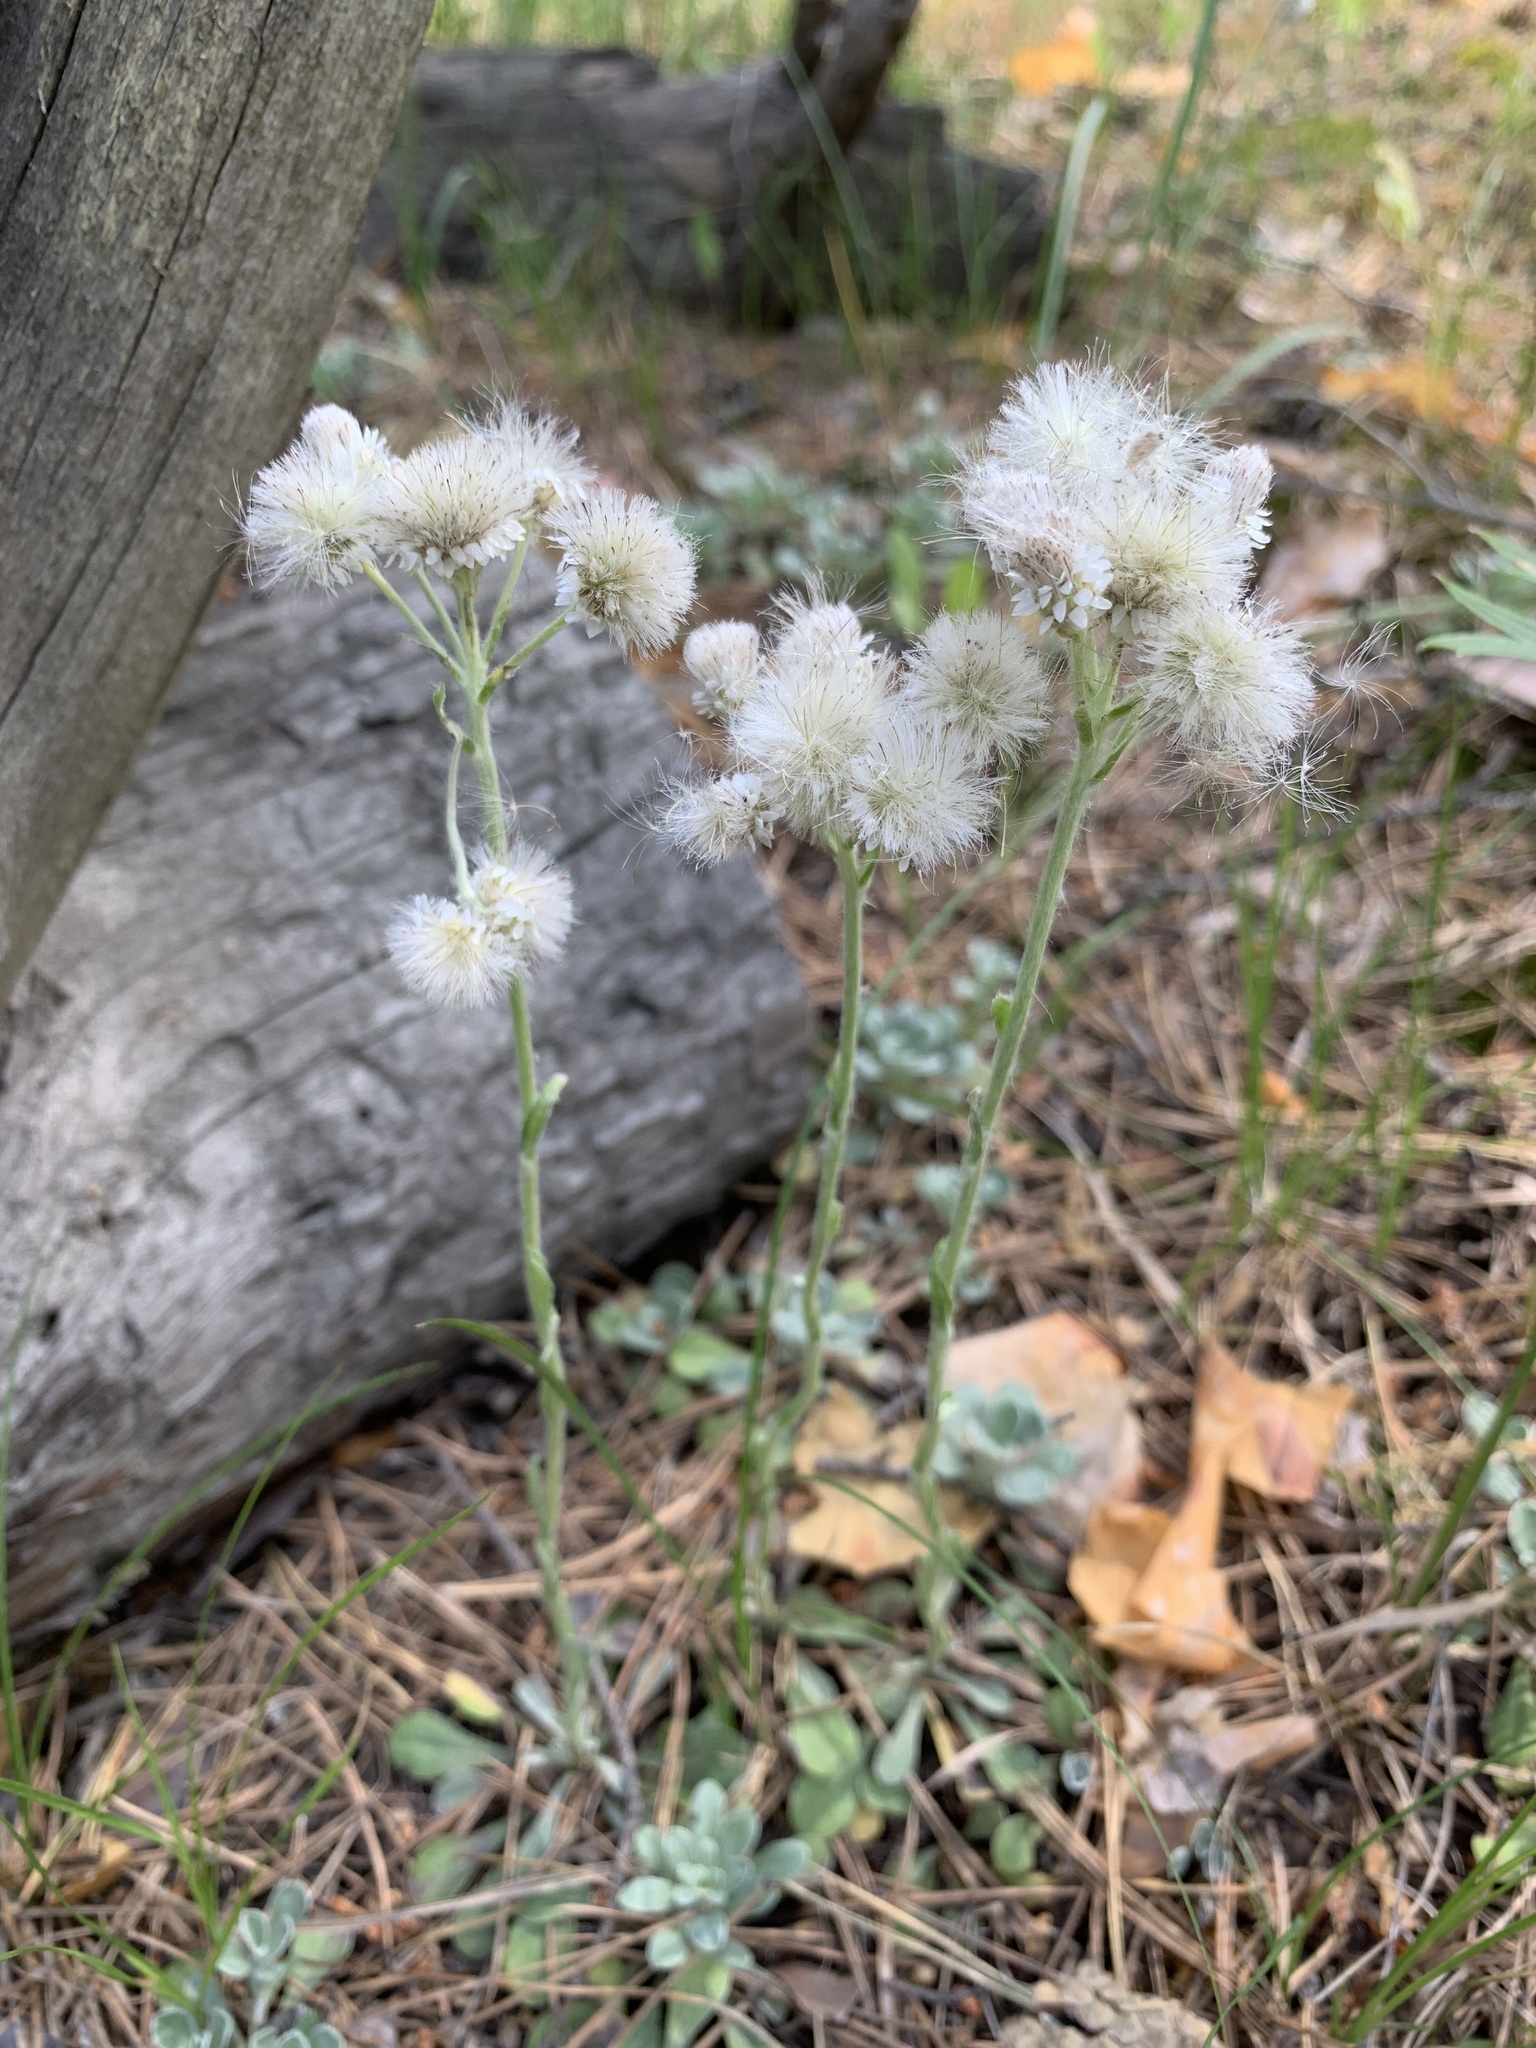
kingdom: Plantae
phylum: Tracheophyta
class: Magnoliopsida
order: Asterales
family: Asteraceae
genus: Antennaria
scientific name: Antennaria dioica
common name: Mountain everlasting
